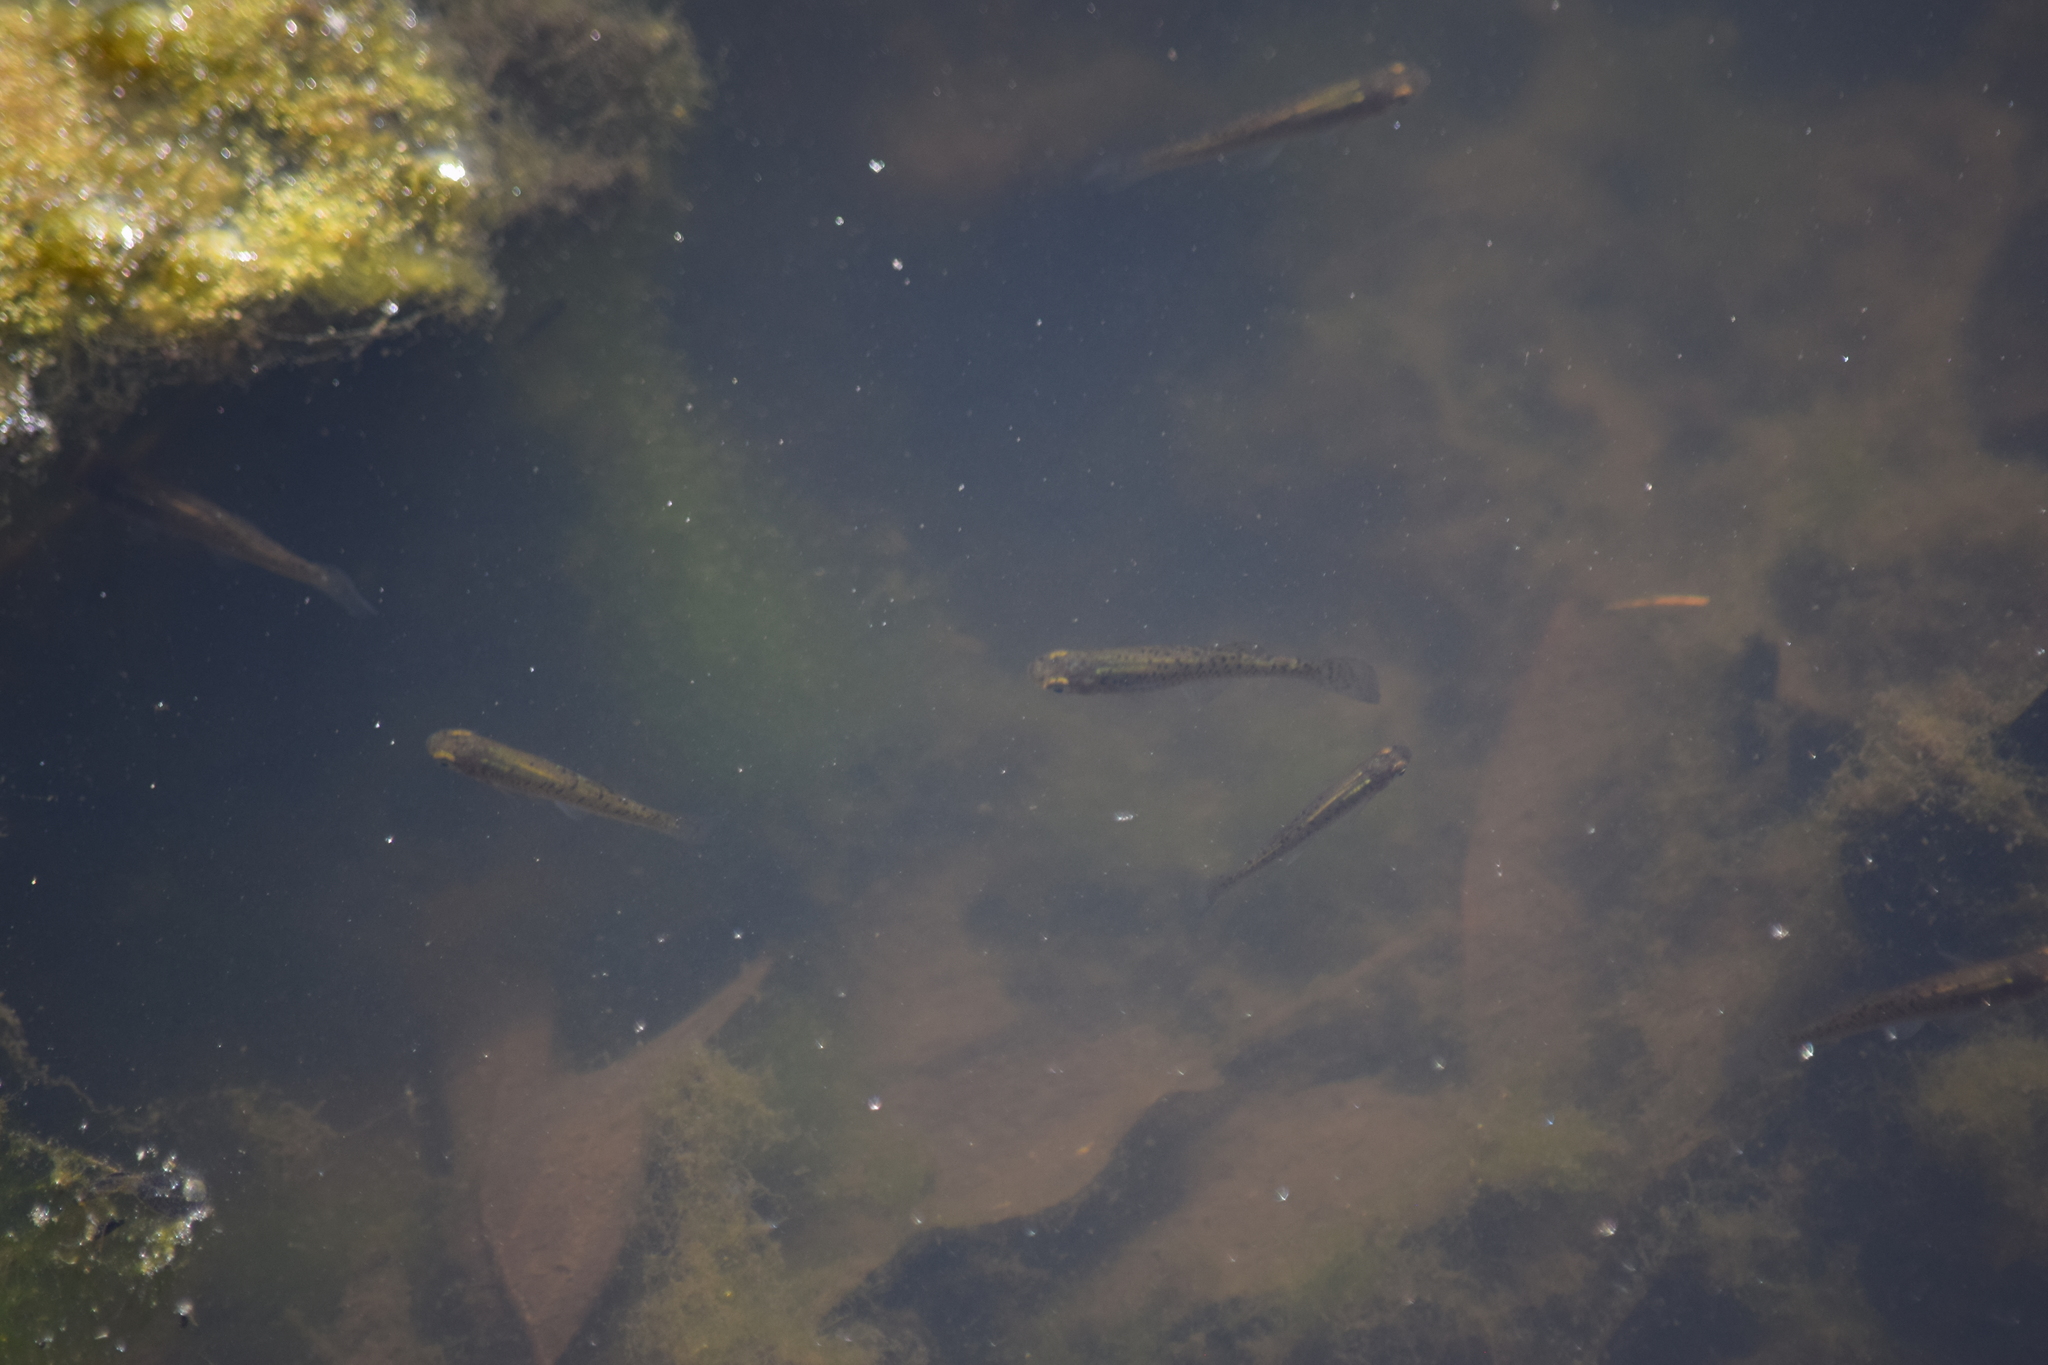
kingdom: Animalia
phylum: Chordata
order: Cyprinodontiformes
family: Poeciliidae
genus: Gambusia
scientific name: Gambusia holbrooki
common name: Eastern mosquitofish
